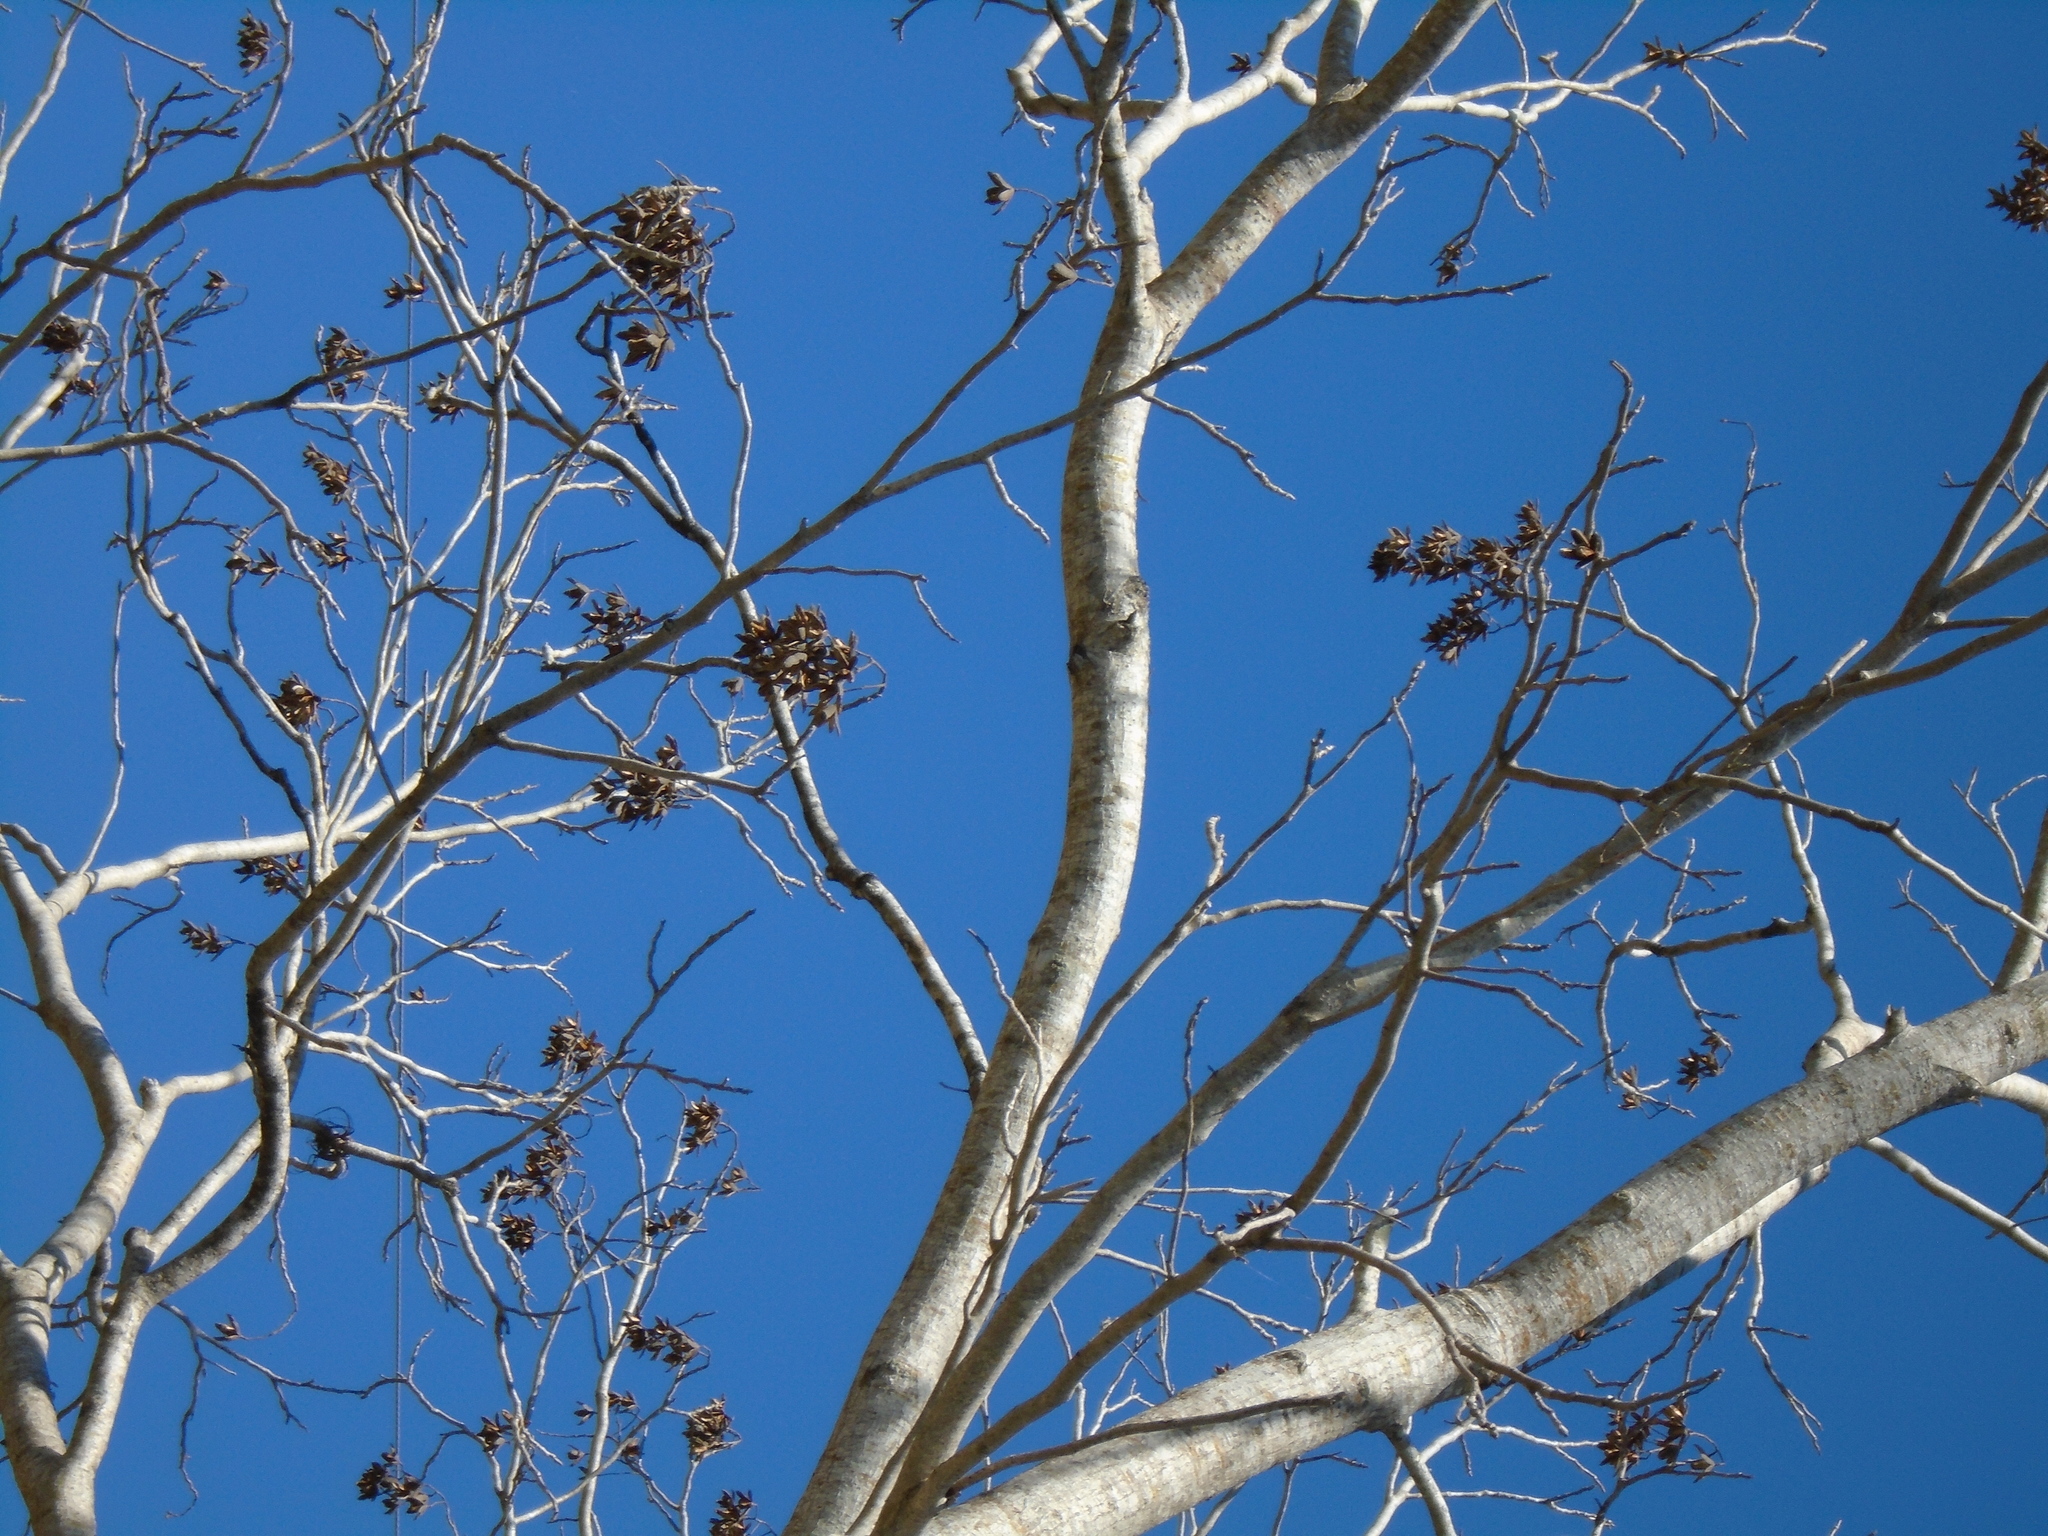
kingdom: Plantae
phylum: Tracheophyta
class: Magnoliopsida
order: Sapindales
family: Meliaceae
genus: Cedrela
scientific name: Cedrela odorata
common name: Red cedar
